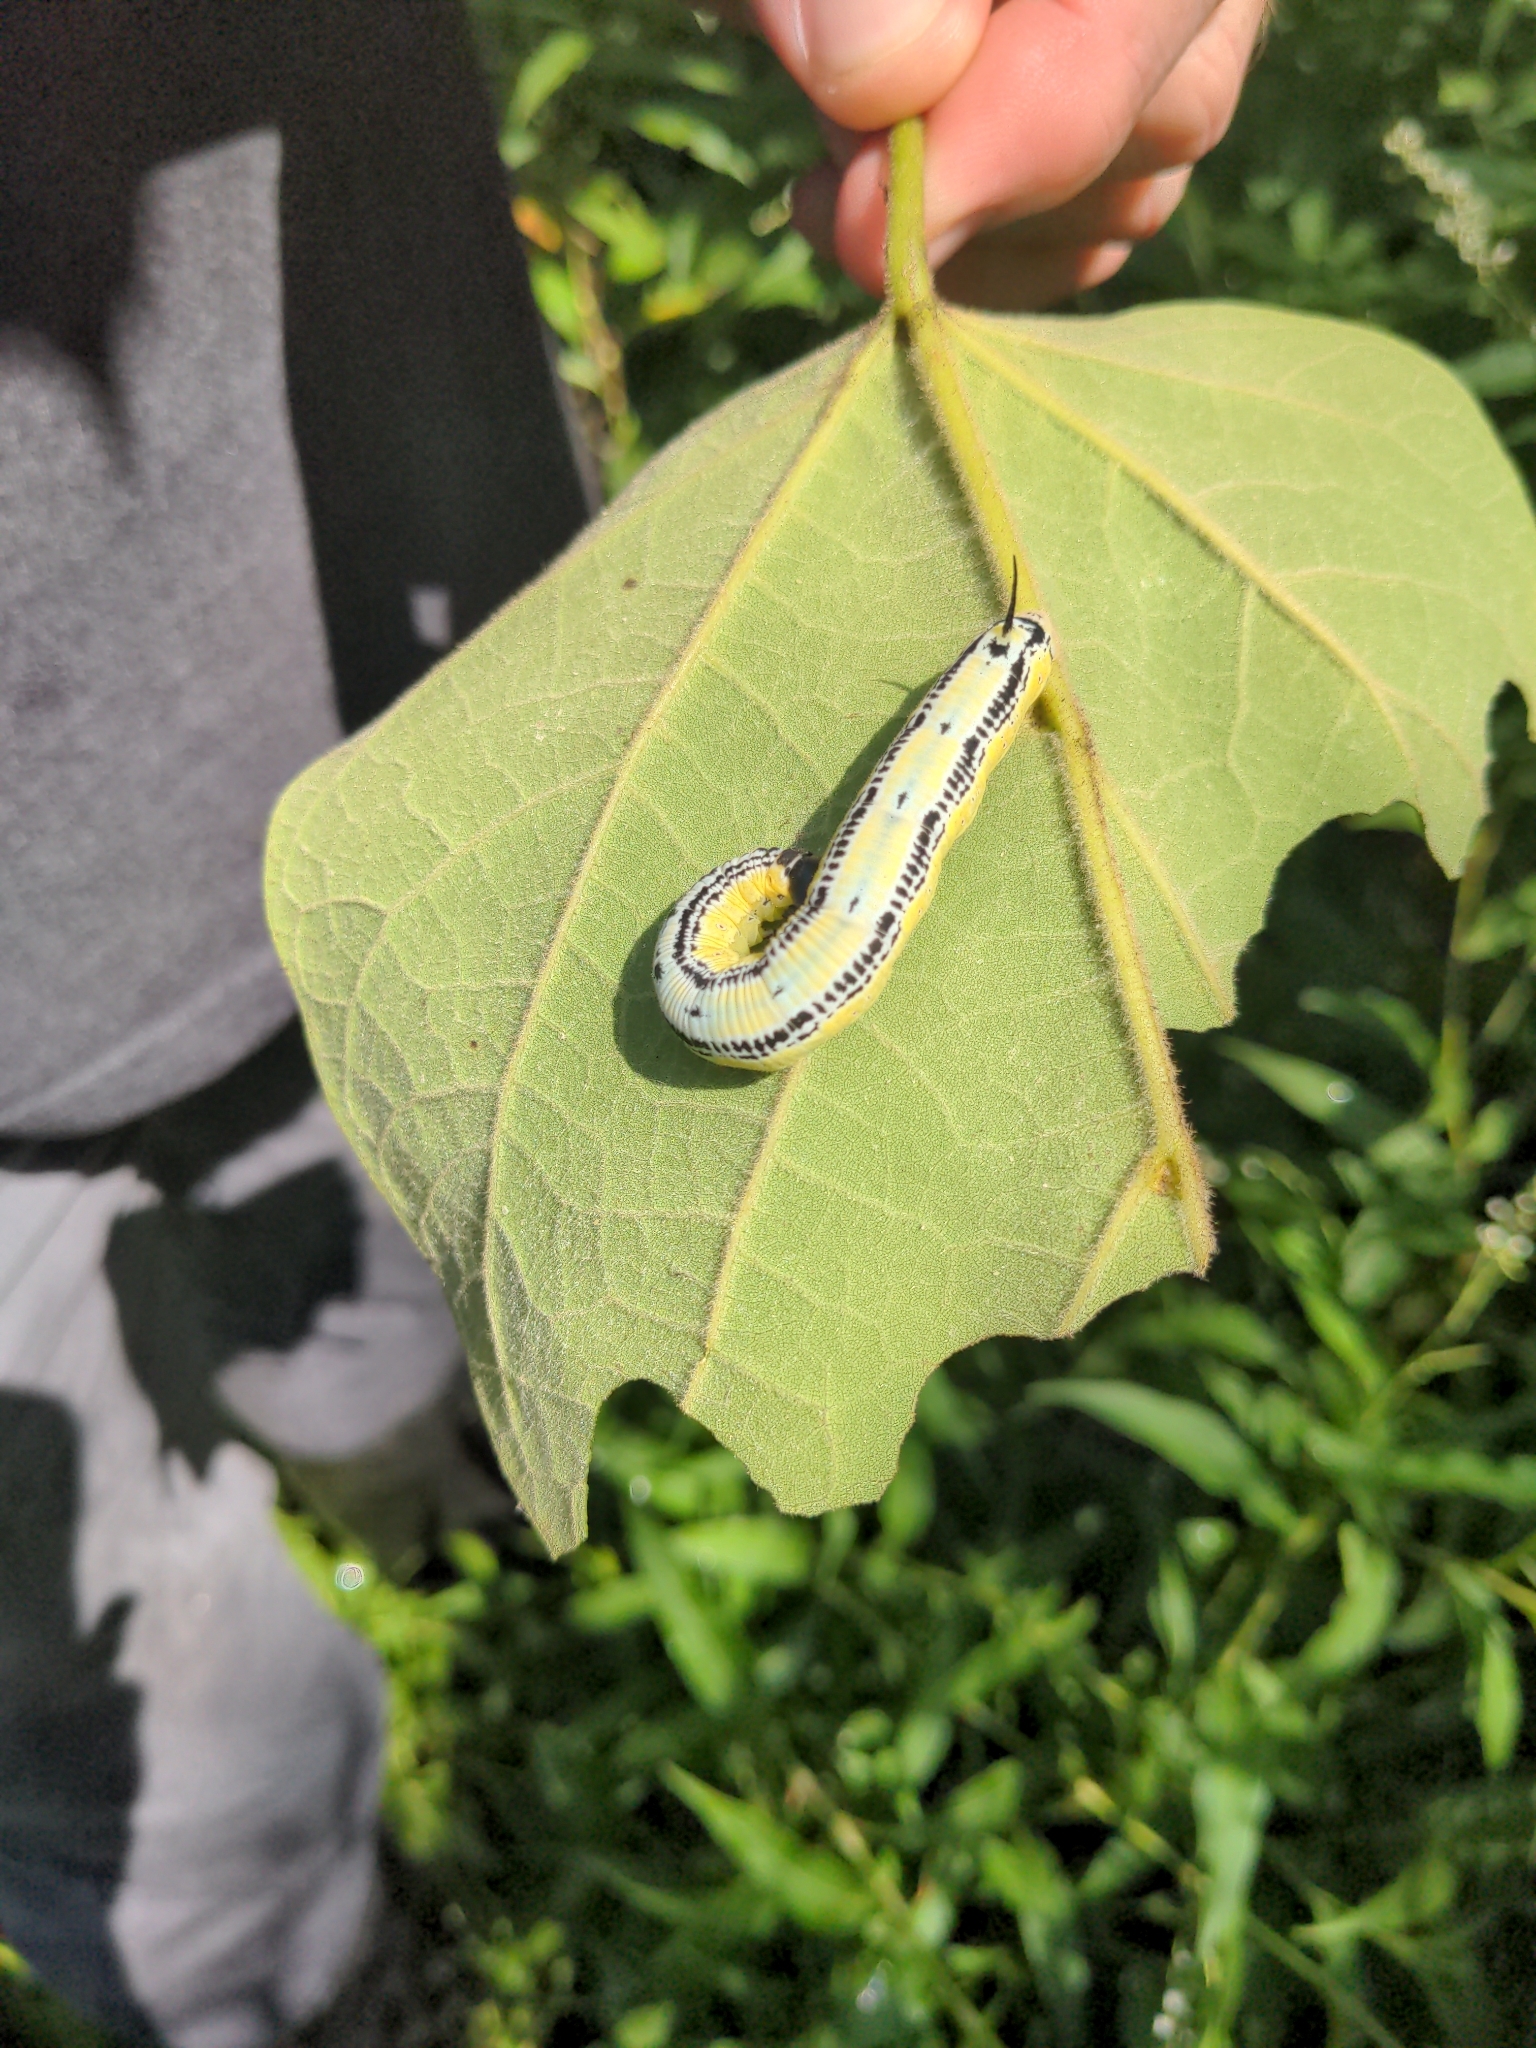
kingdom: Animalia
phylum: Arthropoda
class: Insecta
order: Lepidoptera
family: Sphingidae
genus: Ceratomia
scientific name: Ceratomia catalpae
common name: Catalpa hornworm
